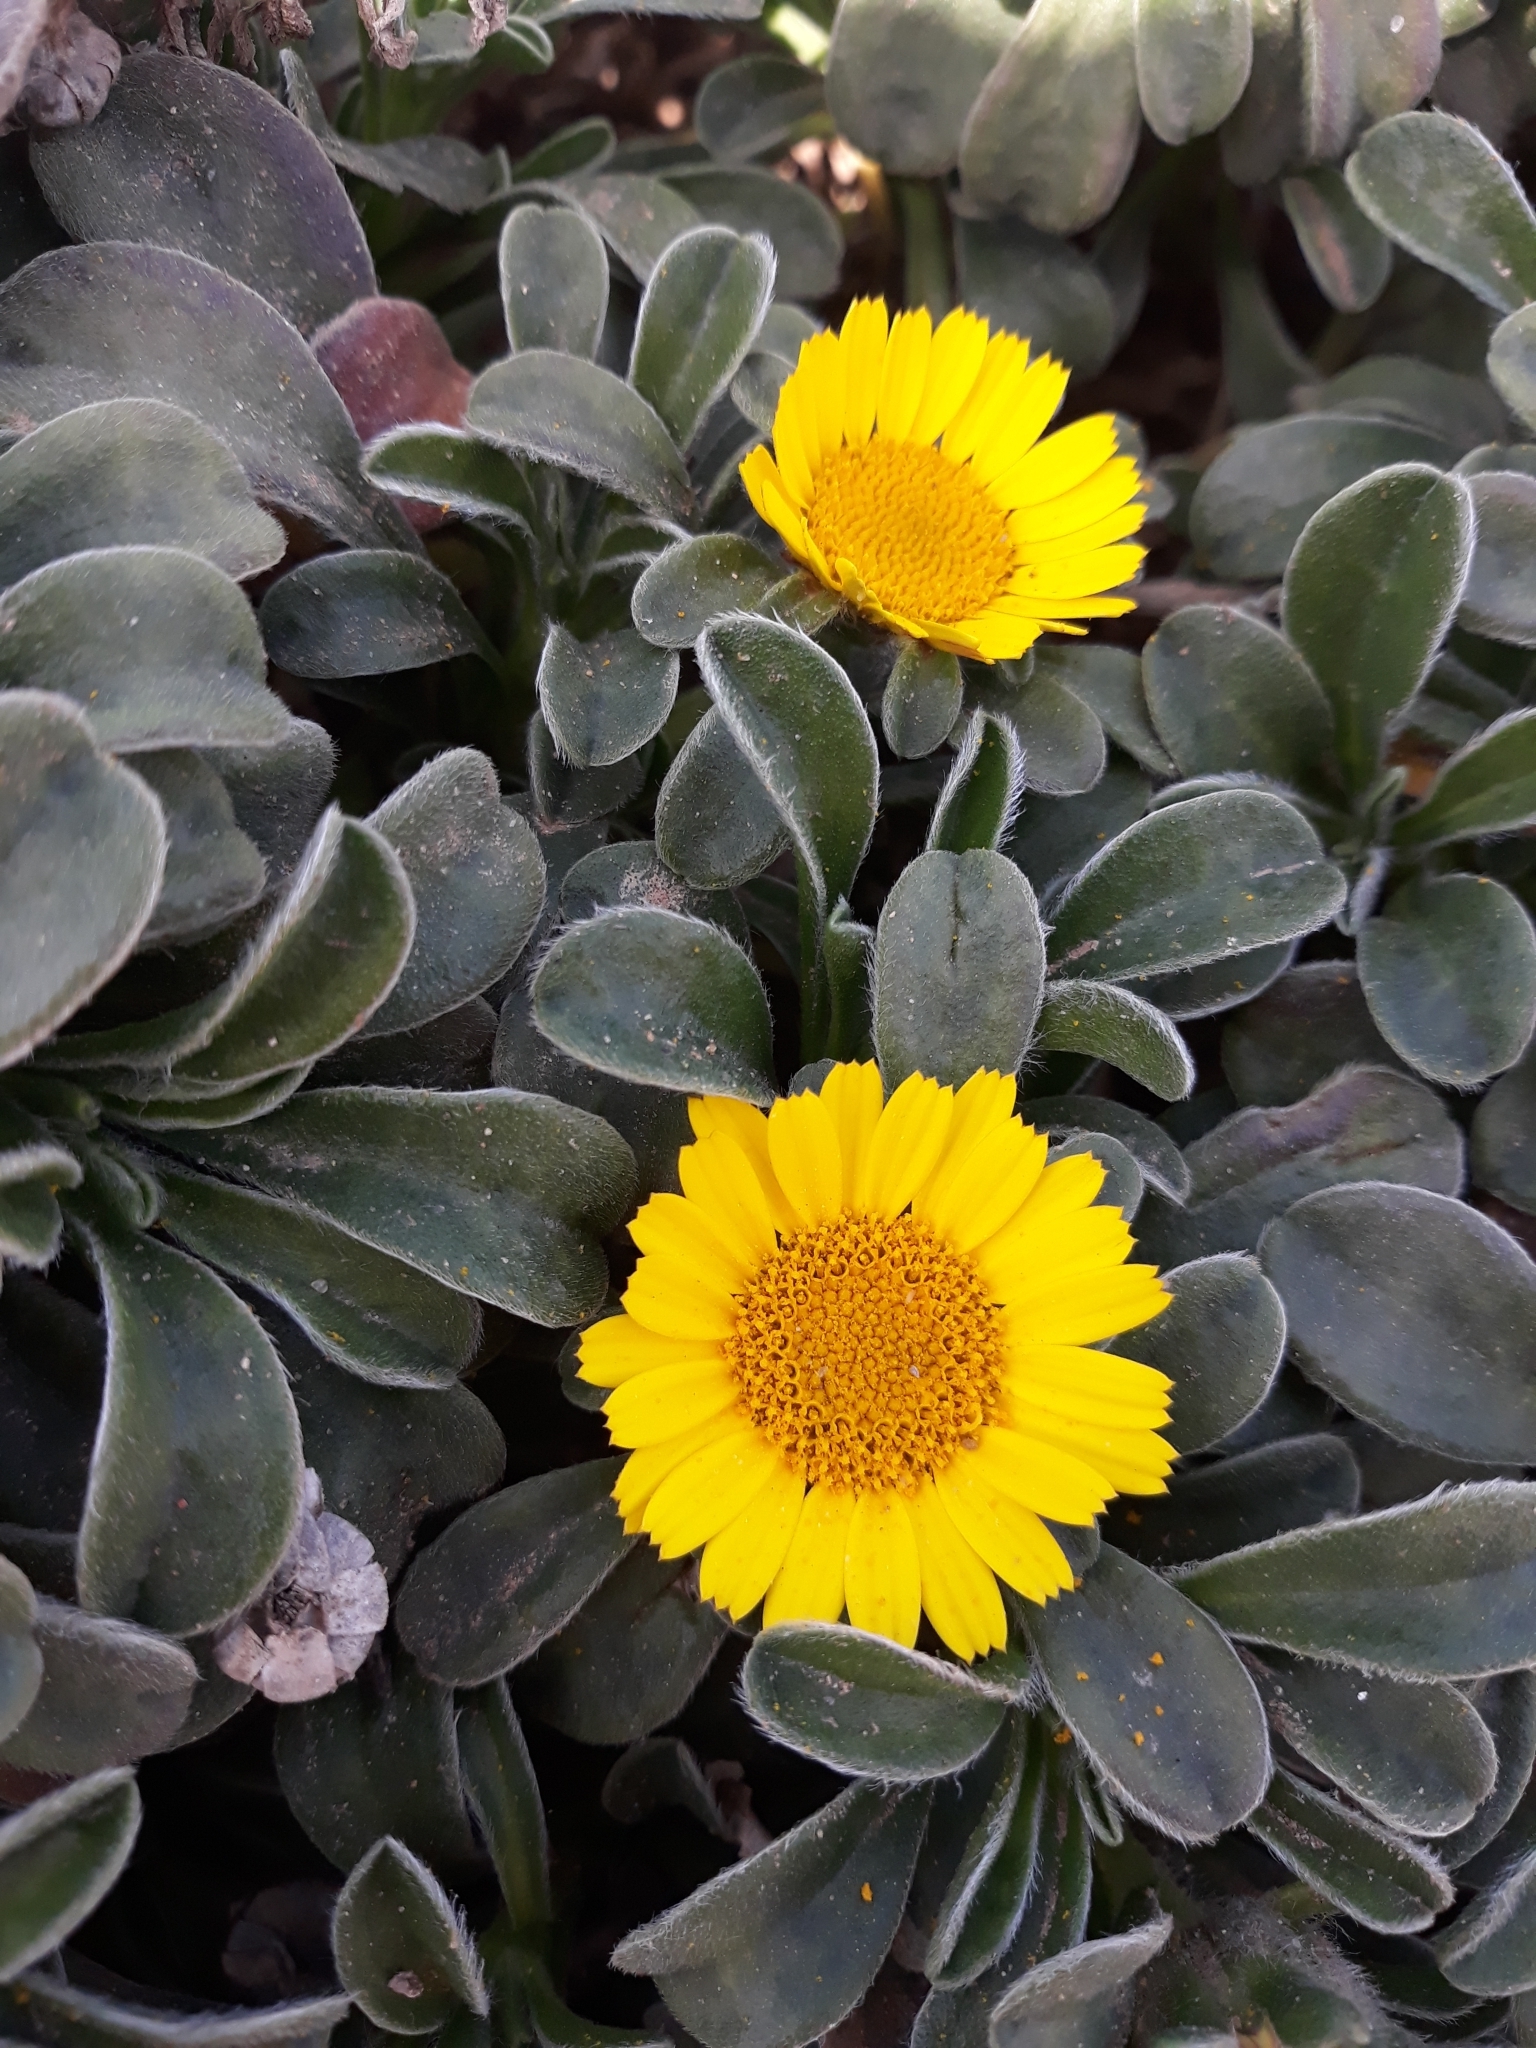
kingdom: Plantae
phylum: Tracheophyta
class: Magnoliopsida
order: Asterales
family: Asteraceae
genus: Pallenis
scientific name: Pallenis maritima
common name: Golden coin daisy
